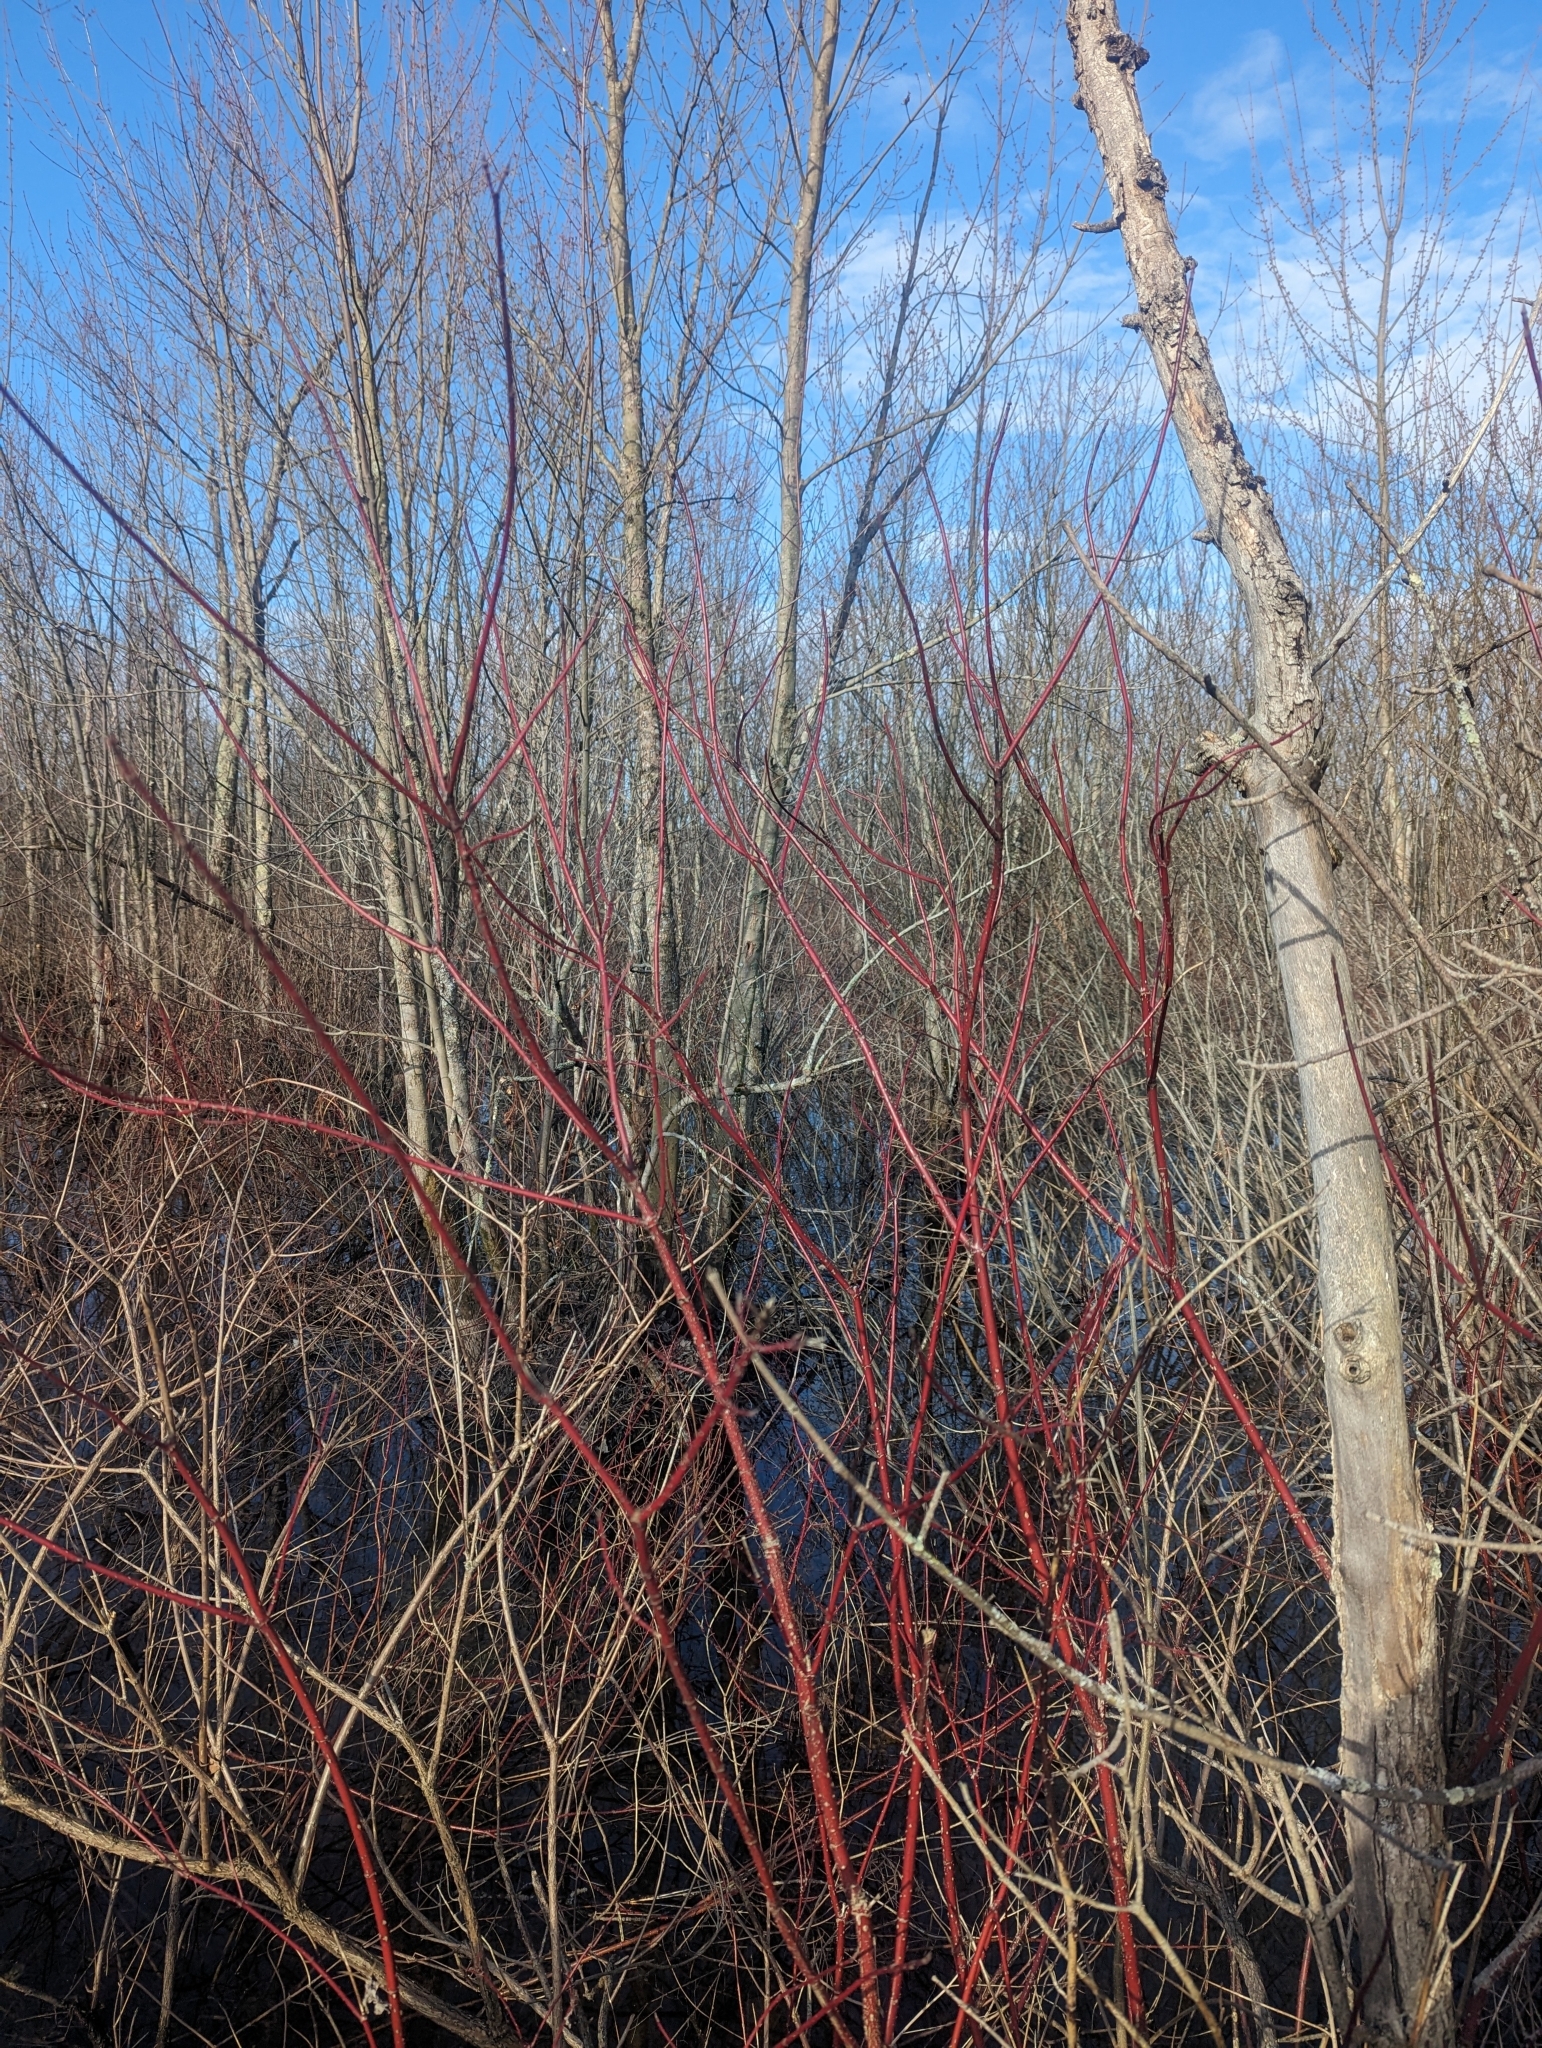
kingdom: Plantae
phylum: Tracheophyta
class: Magnoliopsida
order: Cornales
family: Cornaceae
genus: Cornus
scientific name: Cornus sericea
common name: Red-osier dogwood
